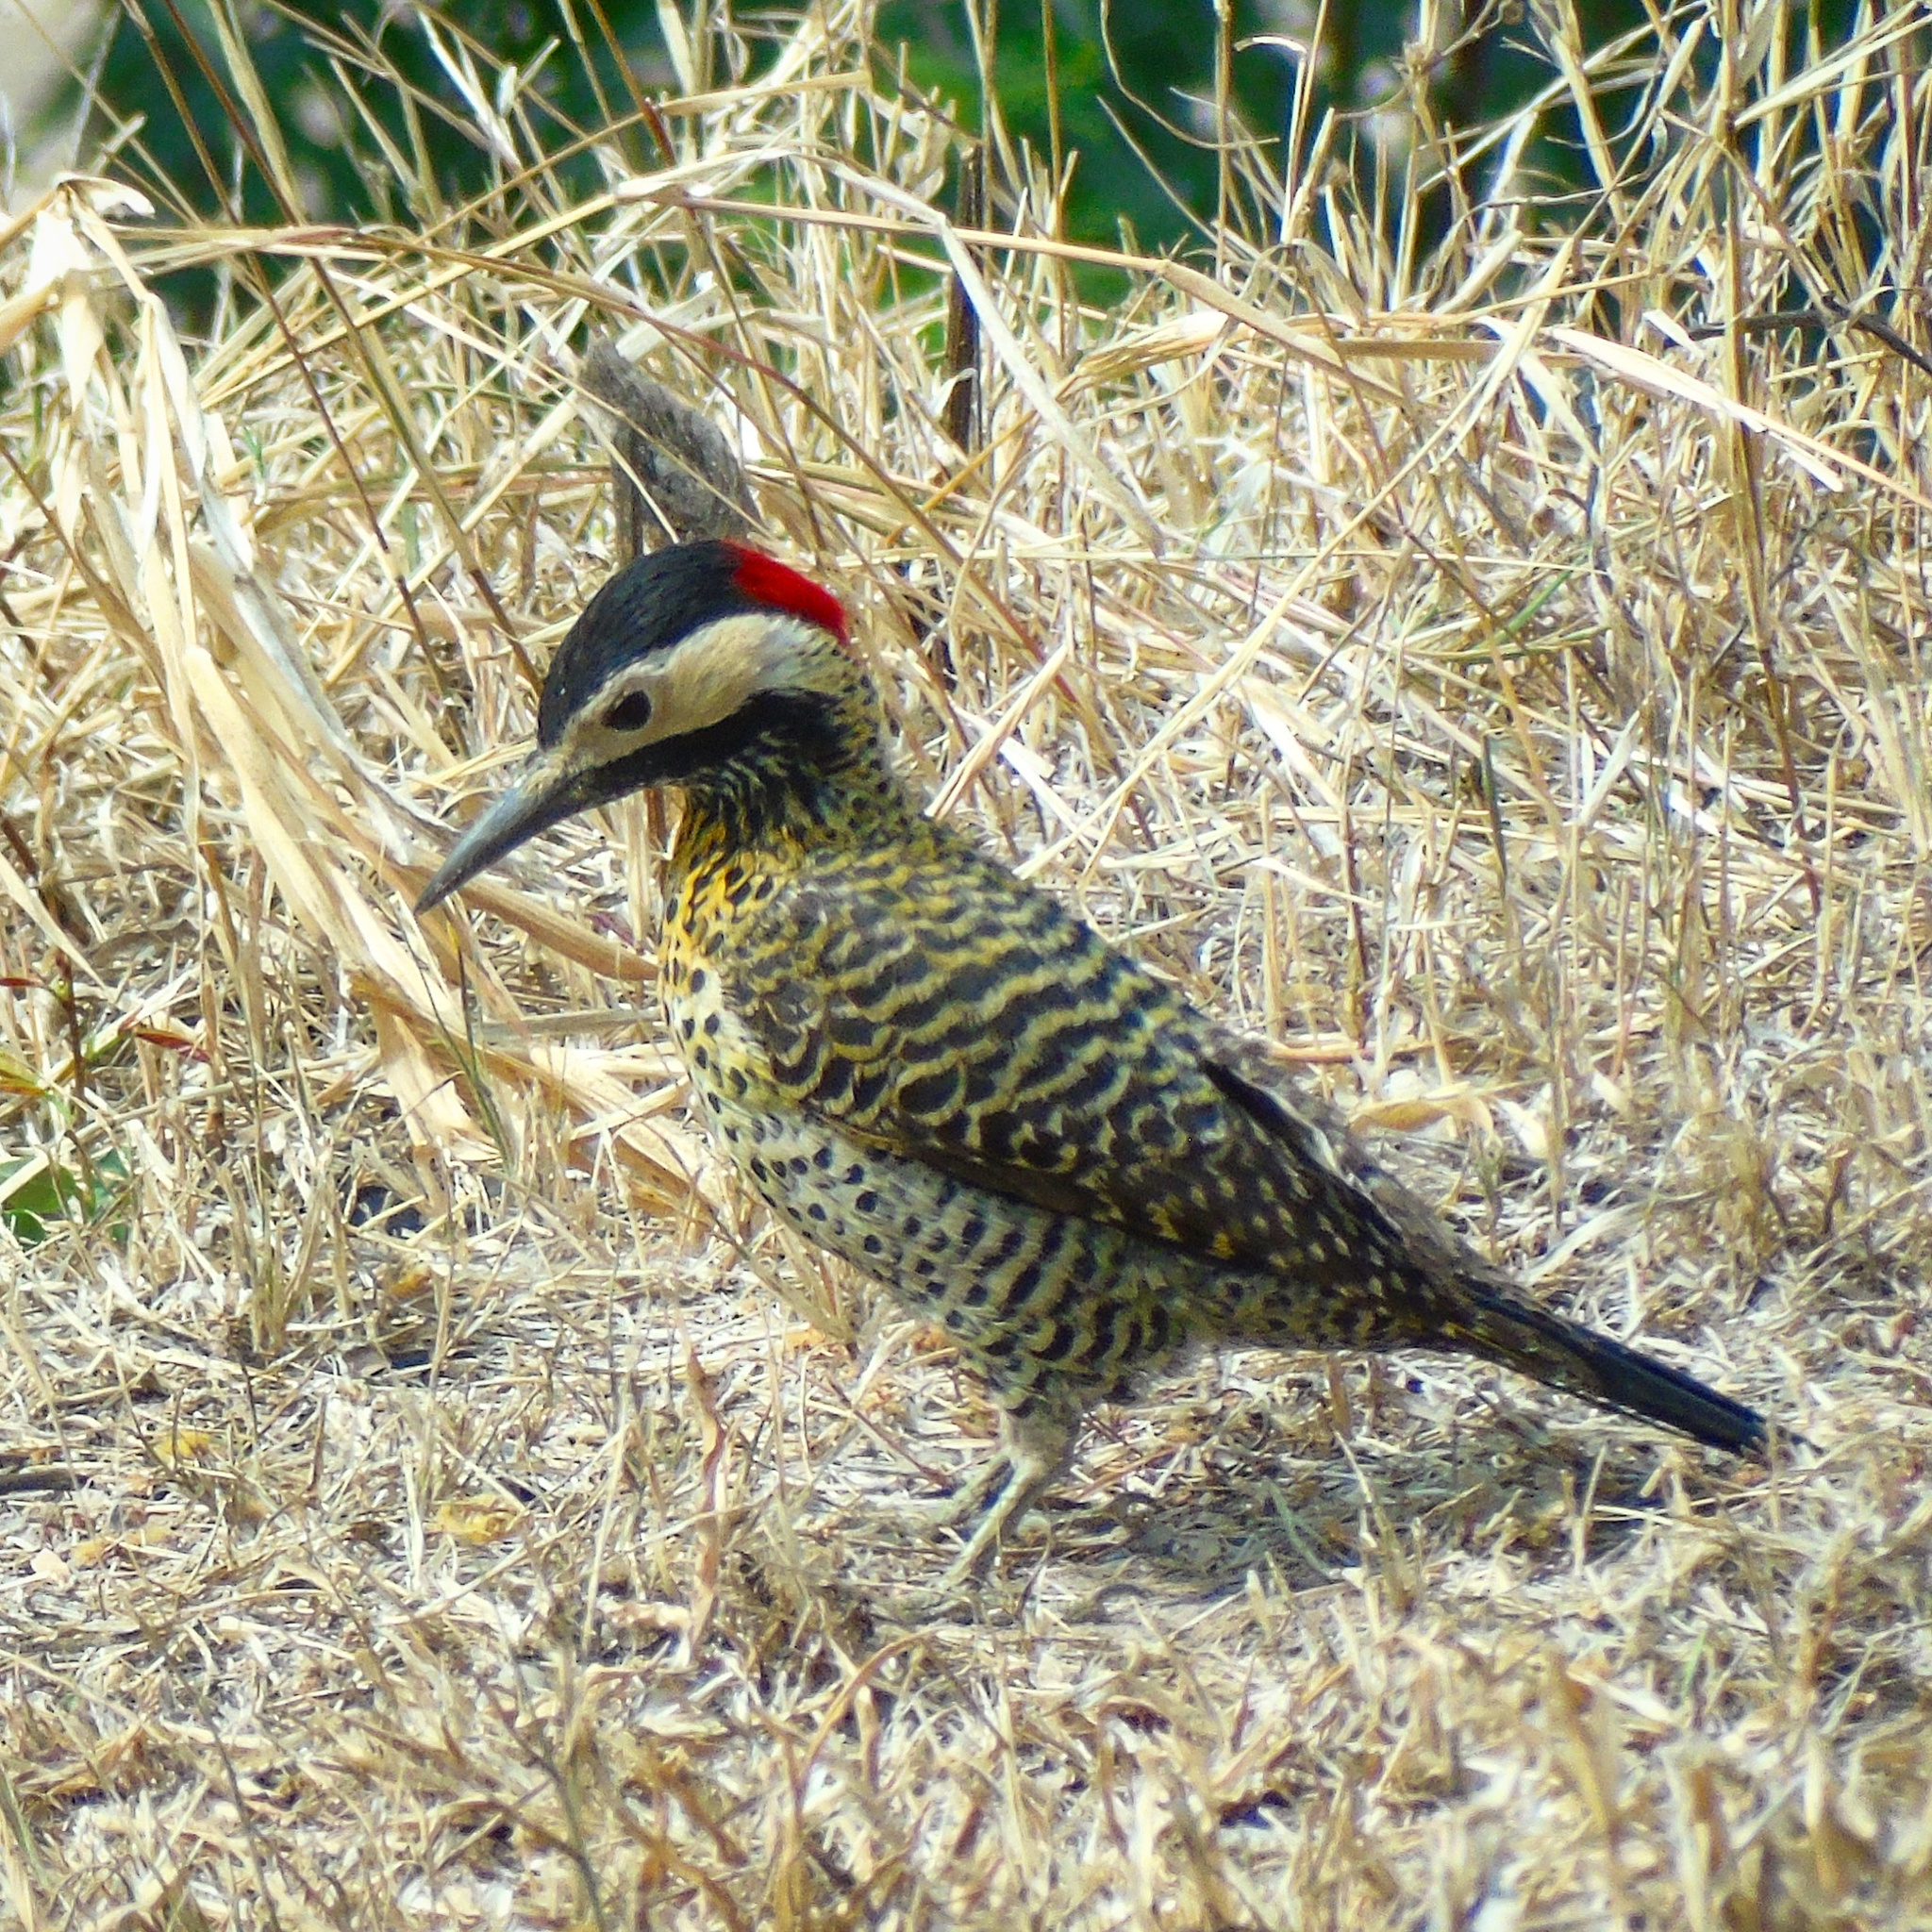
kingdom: Animalia
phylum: Chordata
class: Aves
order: Piciformes
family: Picidae
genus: Colaptes
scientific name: Colaptes melanochloros
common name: Green-barred woodpecker
